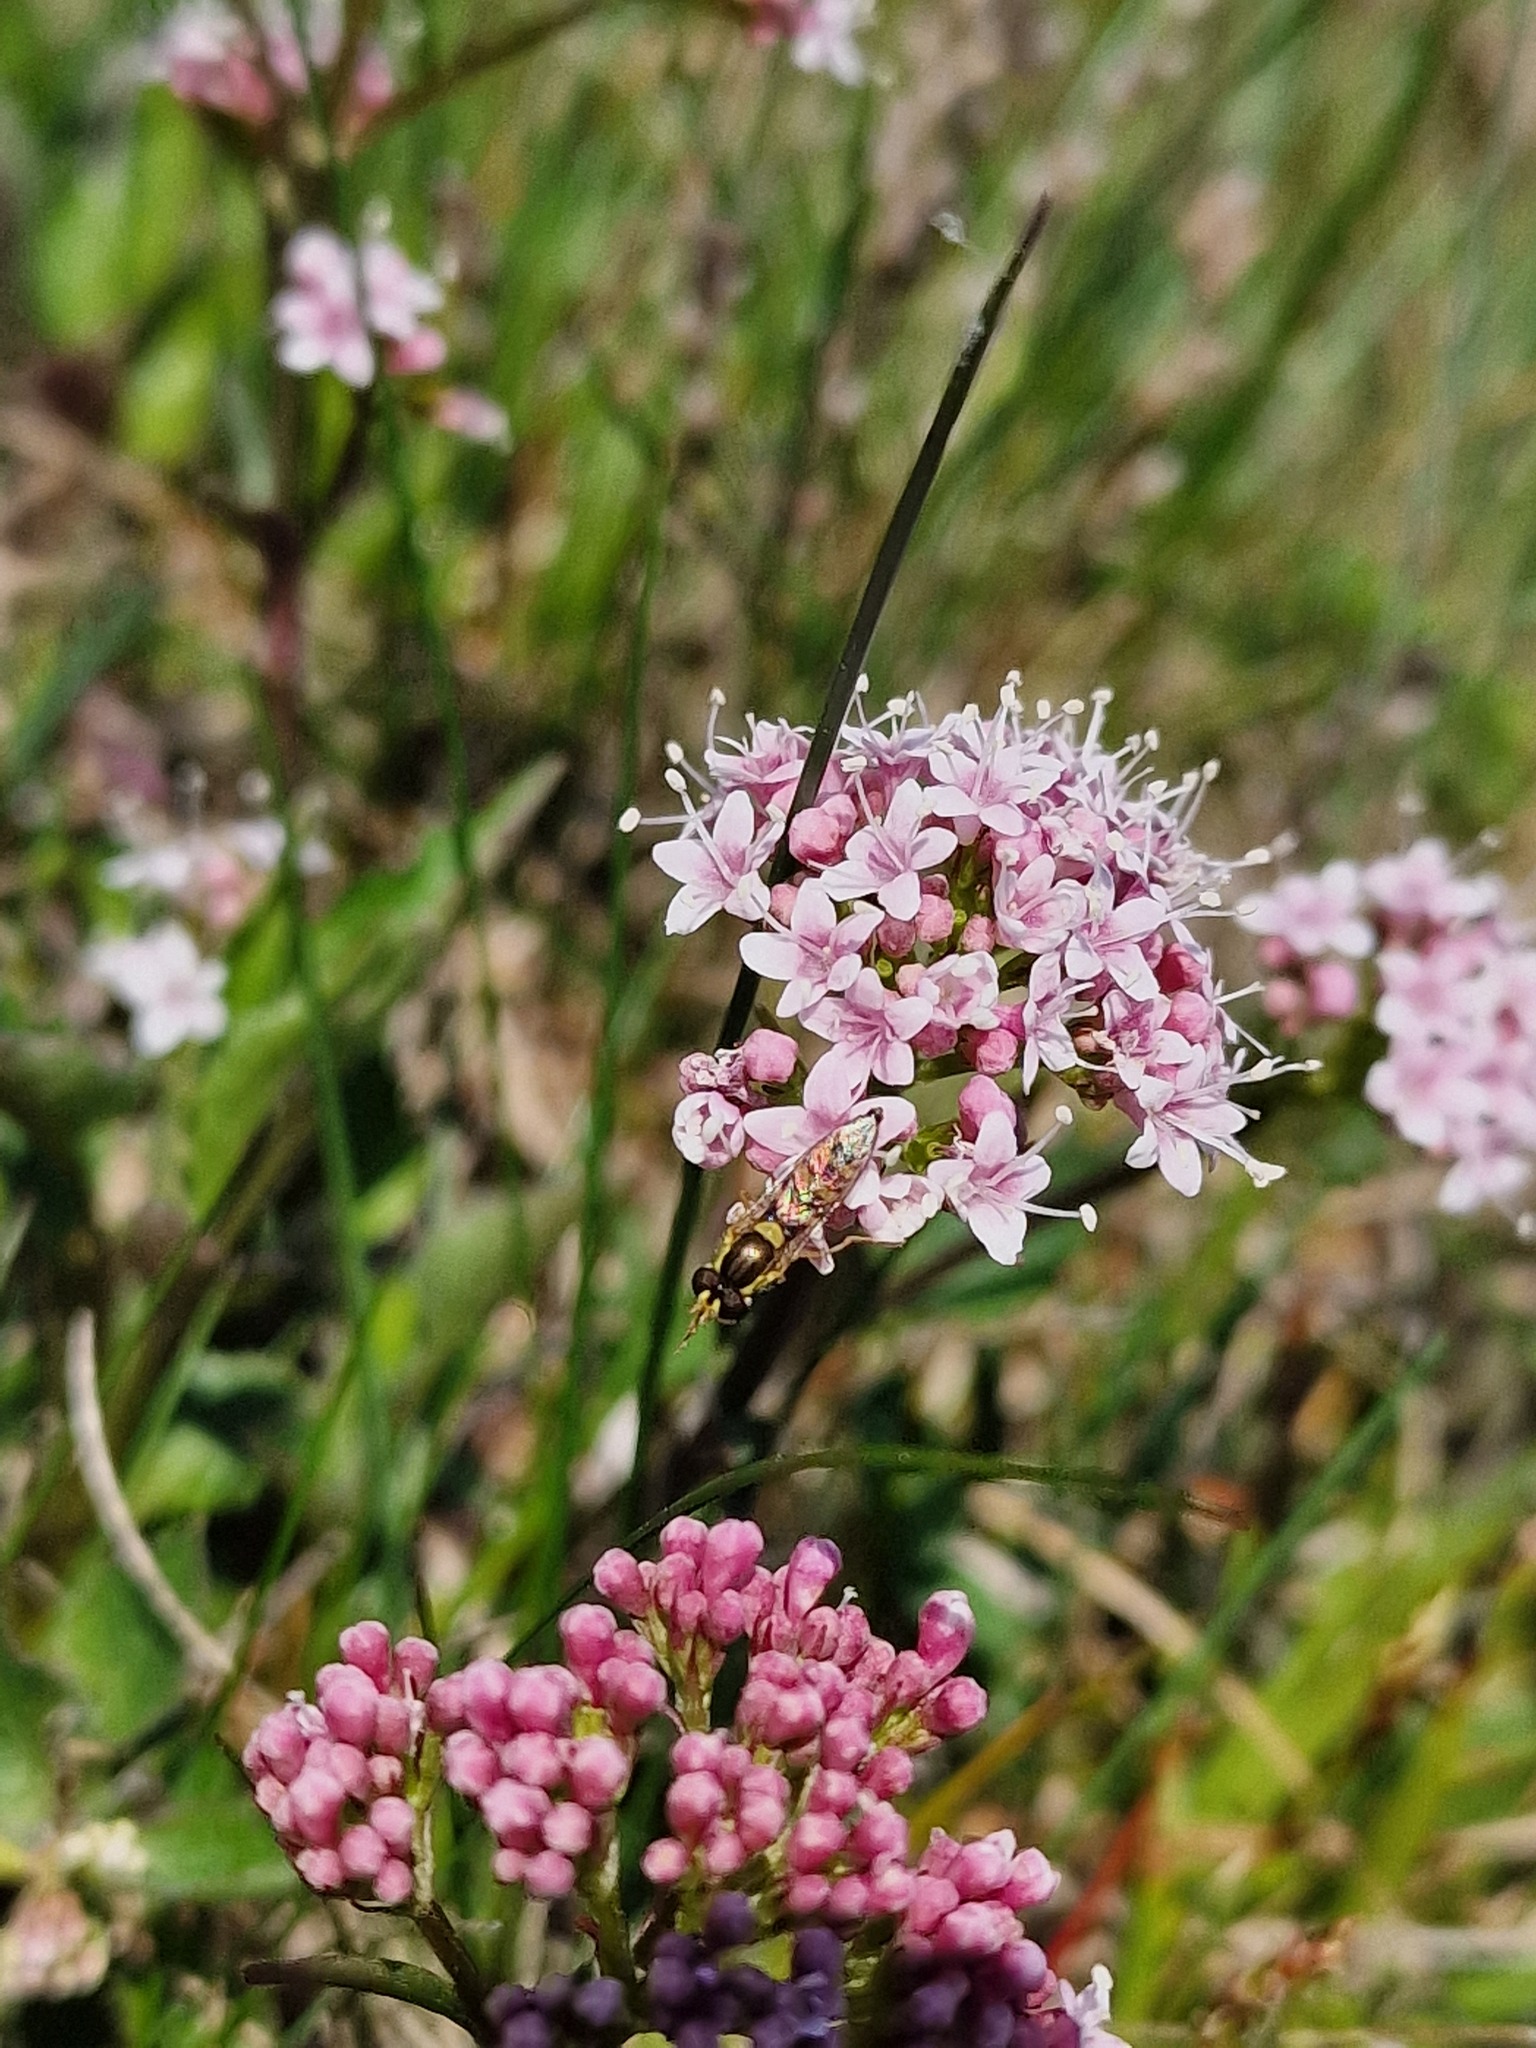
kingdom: Animalia
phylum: Arthropoda
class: Insecta
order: Diptera
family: Syrphidae
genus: Sphaerophoria
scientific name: Sphaerophoria
